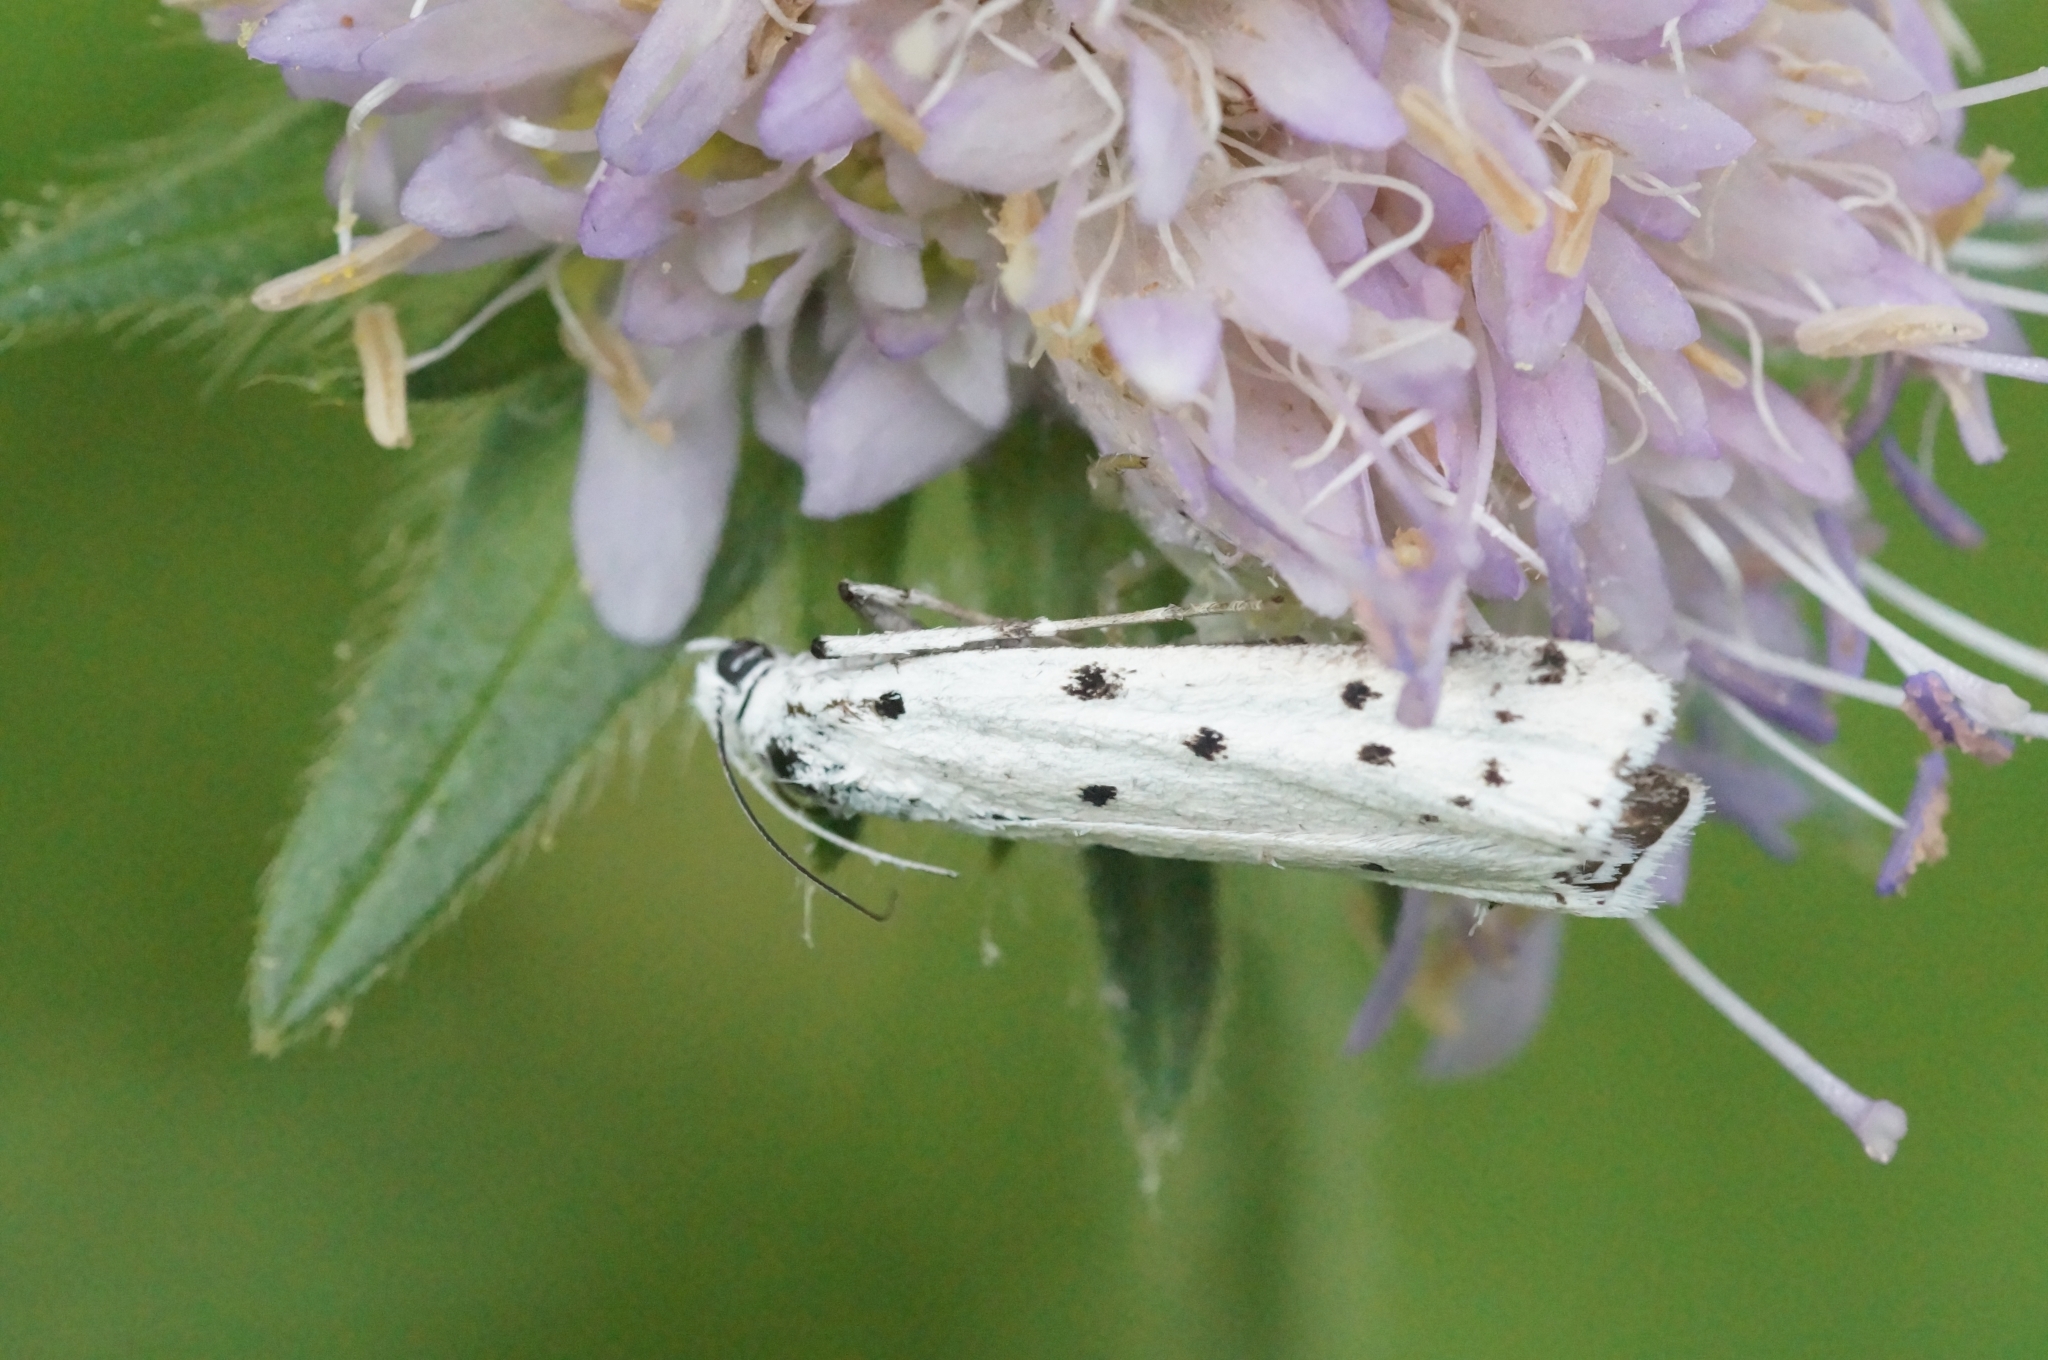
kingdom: Animalia
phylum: Arthropoda
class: Insecta
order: Lepidoptera
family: Pyralidae
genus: Myelois
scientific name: Myelois circumvoluta
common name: Thistle ermine
